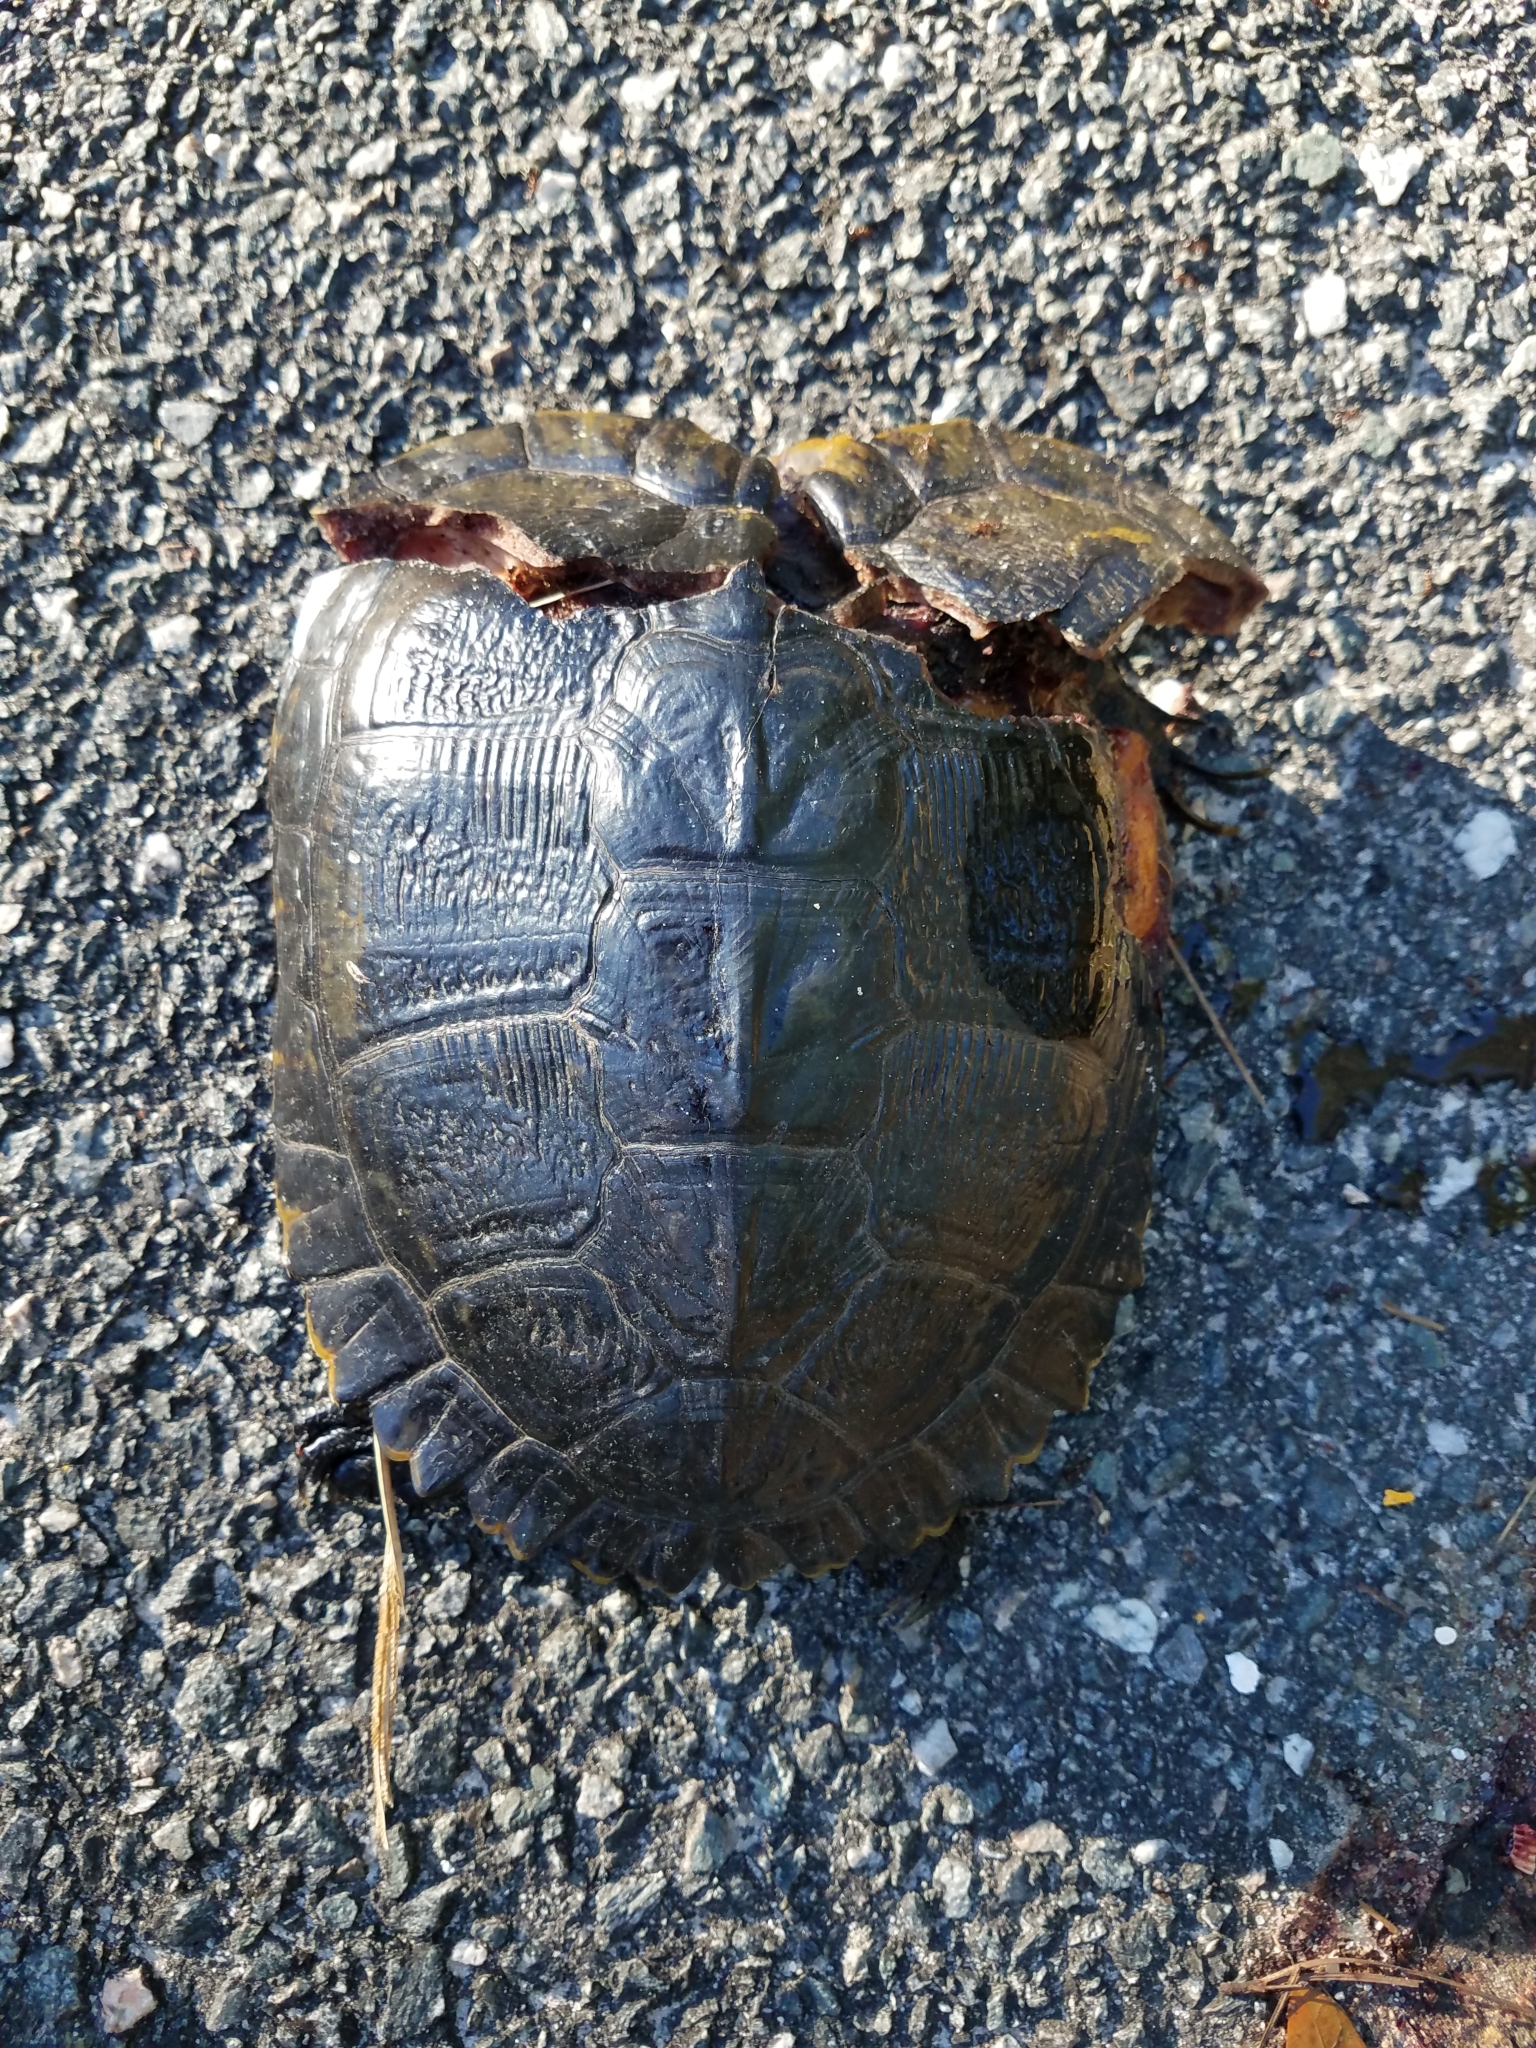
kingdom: Animalia
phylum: Chordata
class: Testudines
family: Emydidae
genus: Trachemys
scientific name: Trachemys scripta
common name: Slider
